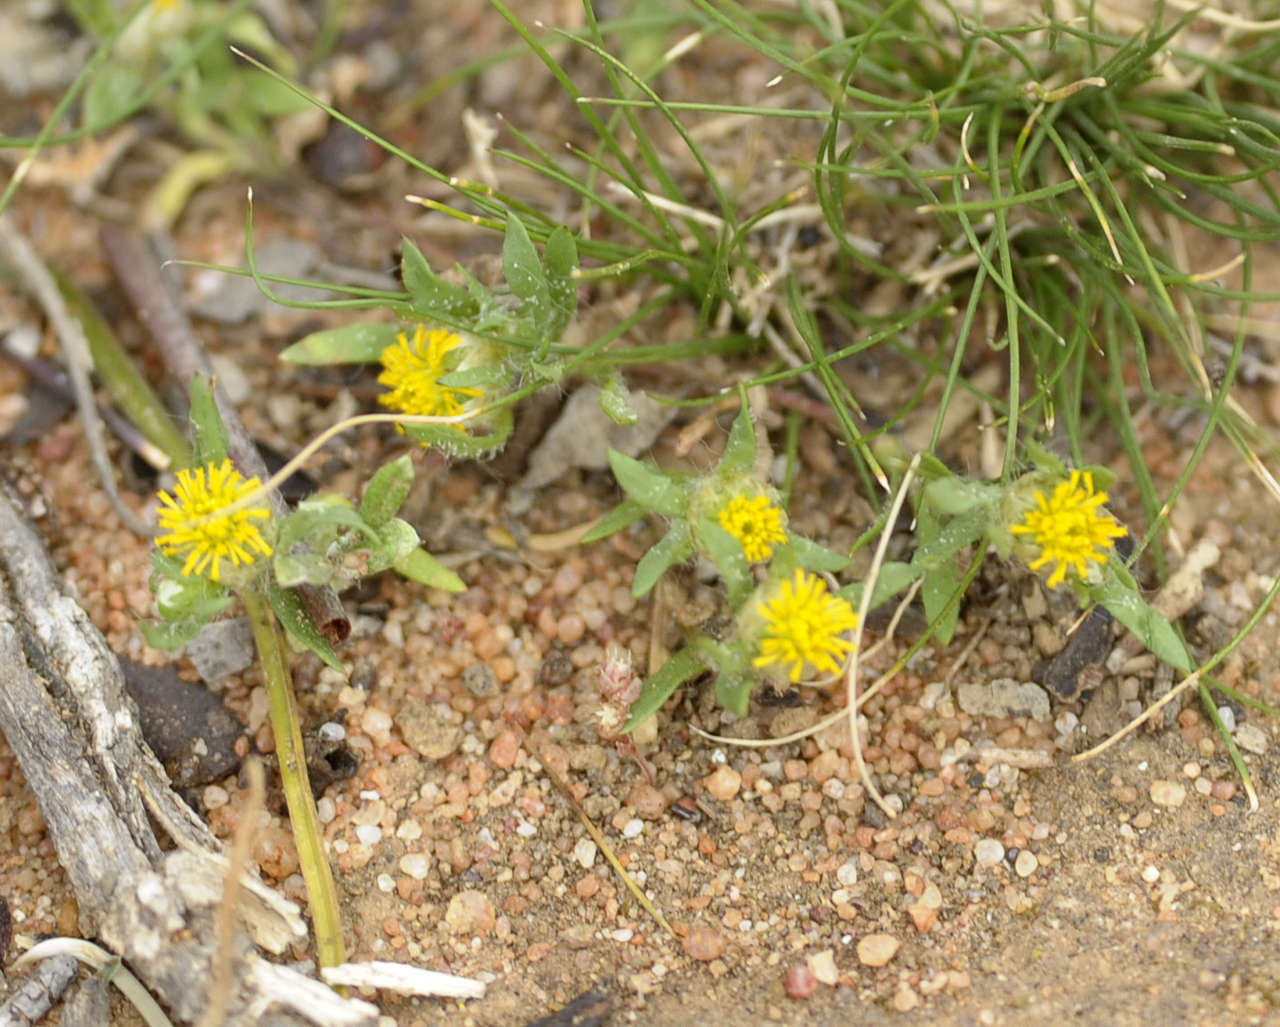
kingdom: Plantae
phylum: Tracheophyta
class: Magnoliopsida
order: Asterales
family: Asteraceae
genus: Triptilodiscus
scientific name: Triptilodiscus pygmaeus
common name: Common sunray
